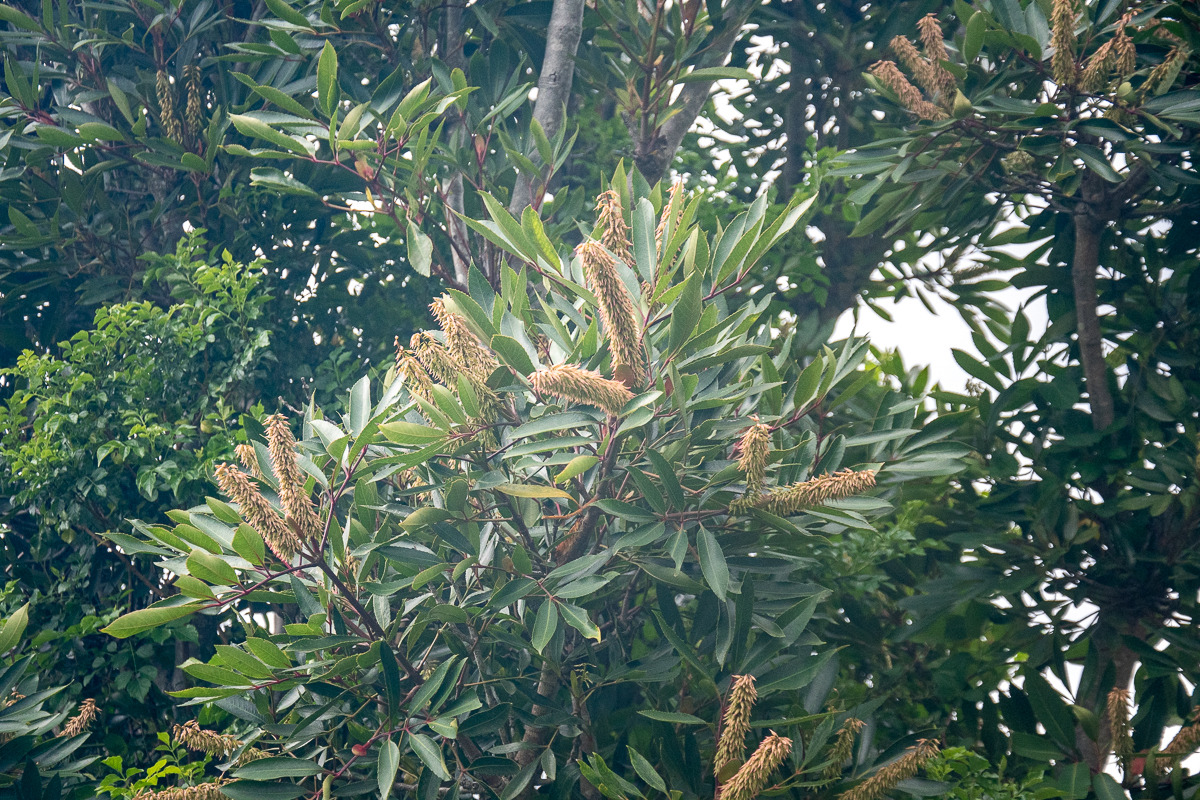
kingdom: Plantae
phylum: Tracheophyta
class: Magnoliopsida
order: Oxalidales
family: Cunoniaceae
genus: Cunonia
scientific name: Cunonia capensis
